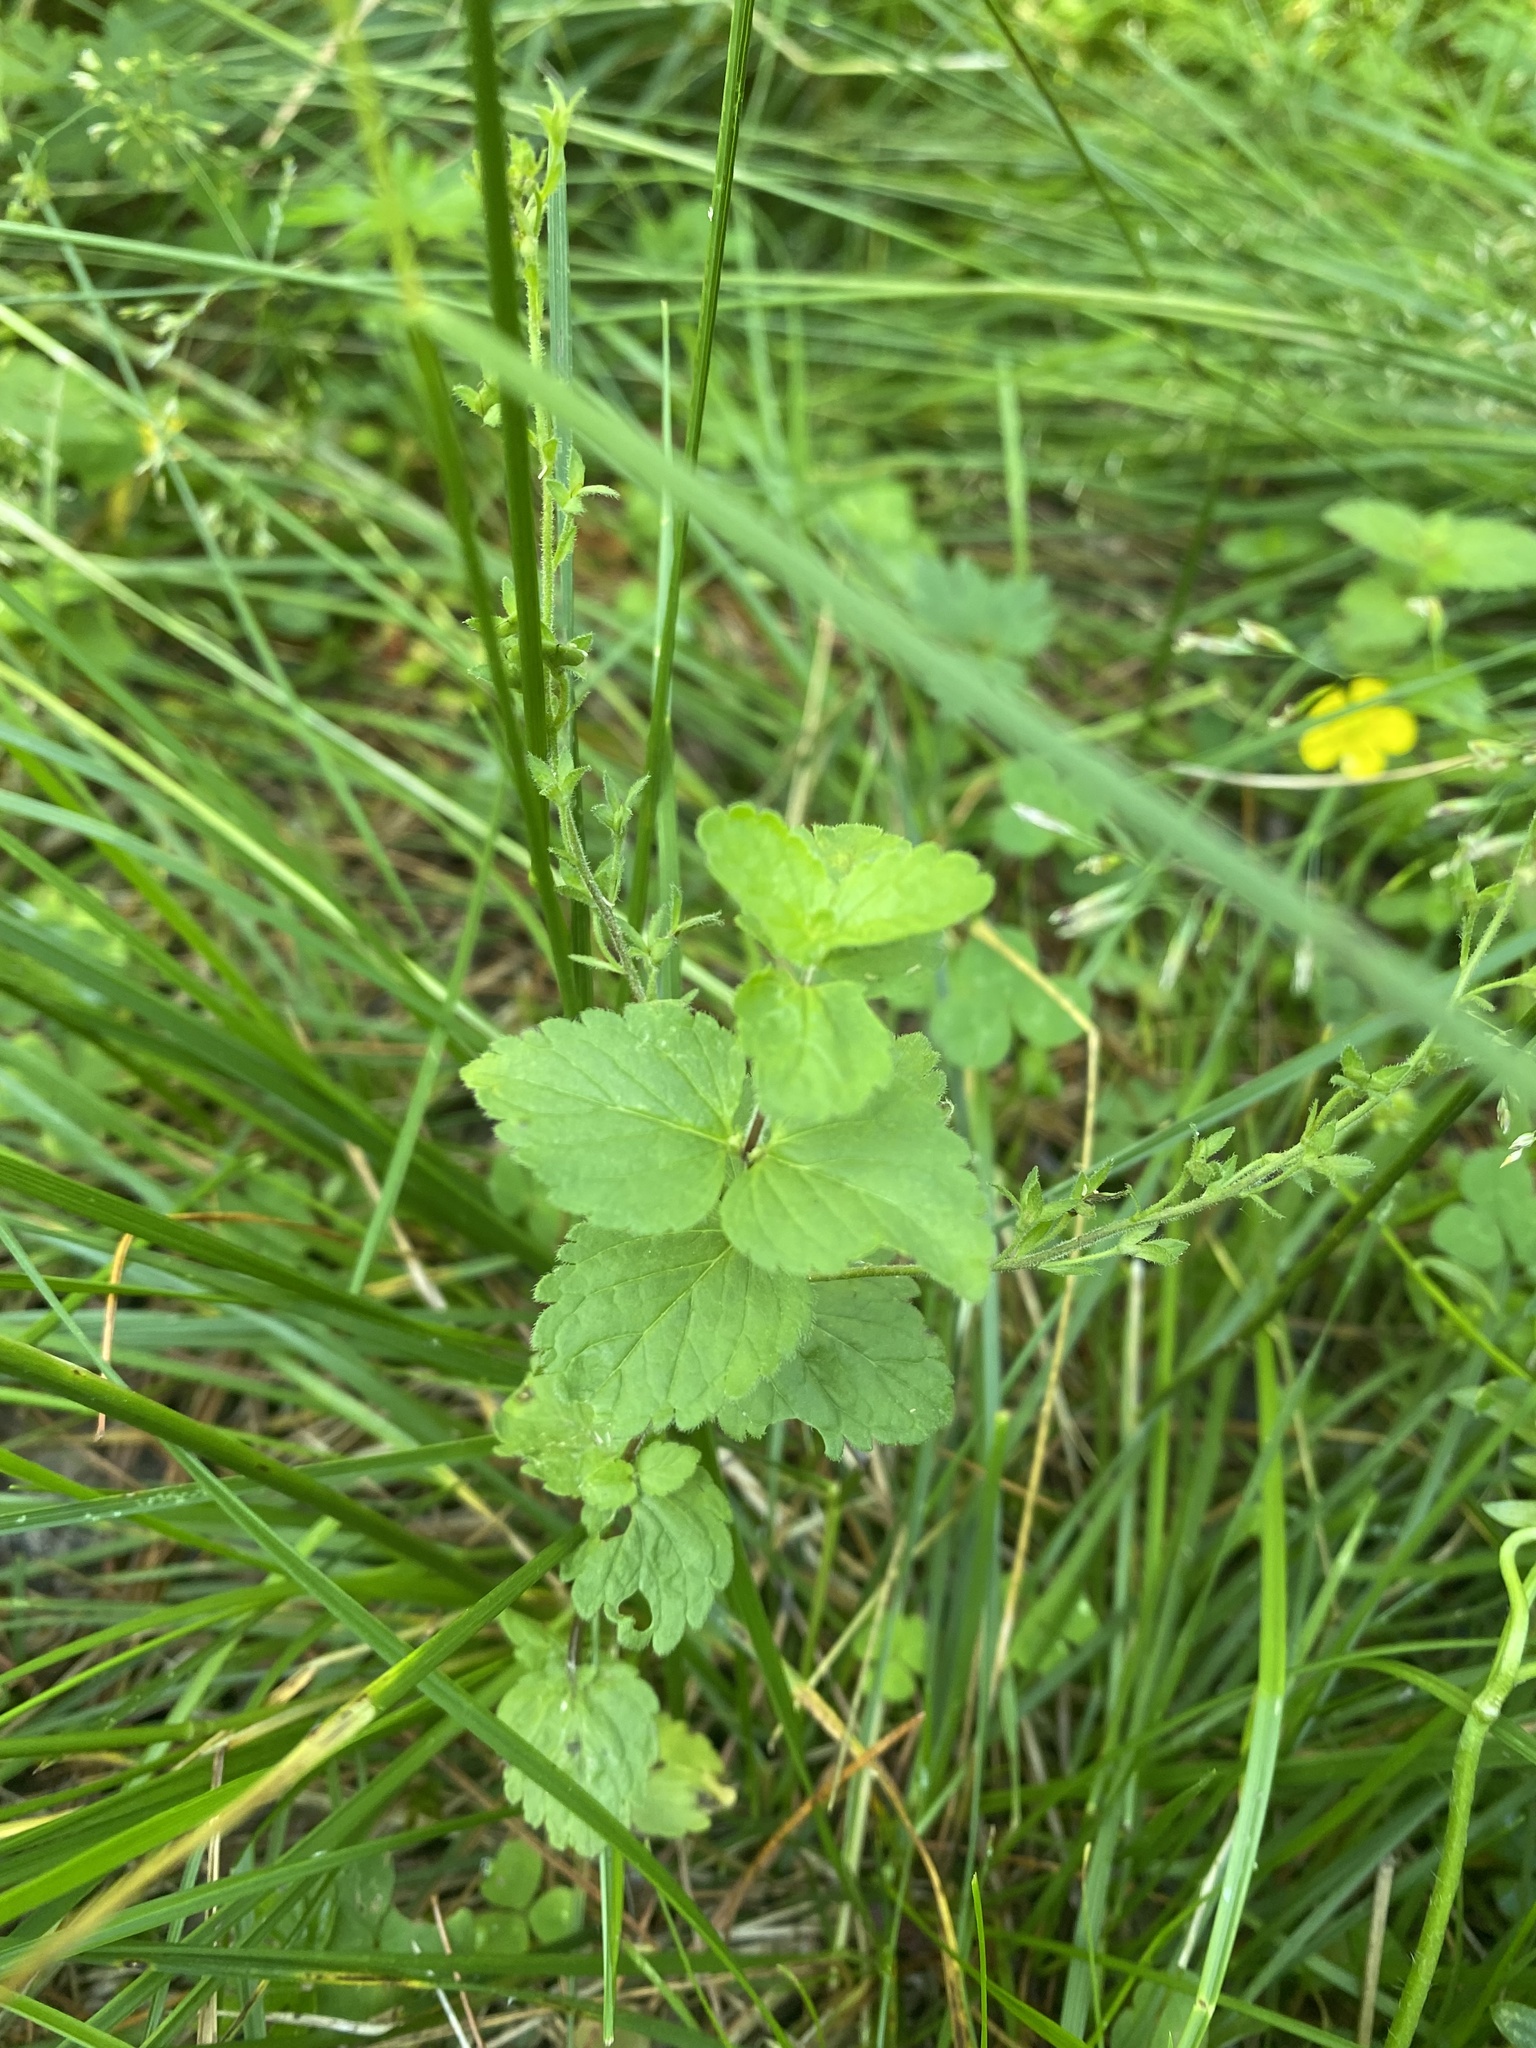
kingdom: Plantae
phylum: Tracheophyta
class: Magnoliopsida
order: Lamiales
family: Plantaginaceae
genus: Veronica
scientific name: Veronica chamaedrys
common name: Germander speedwell
